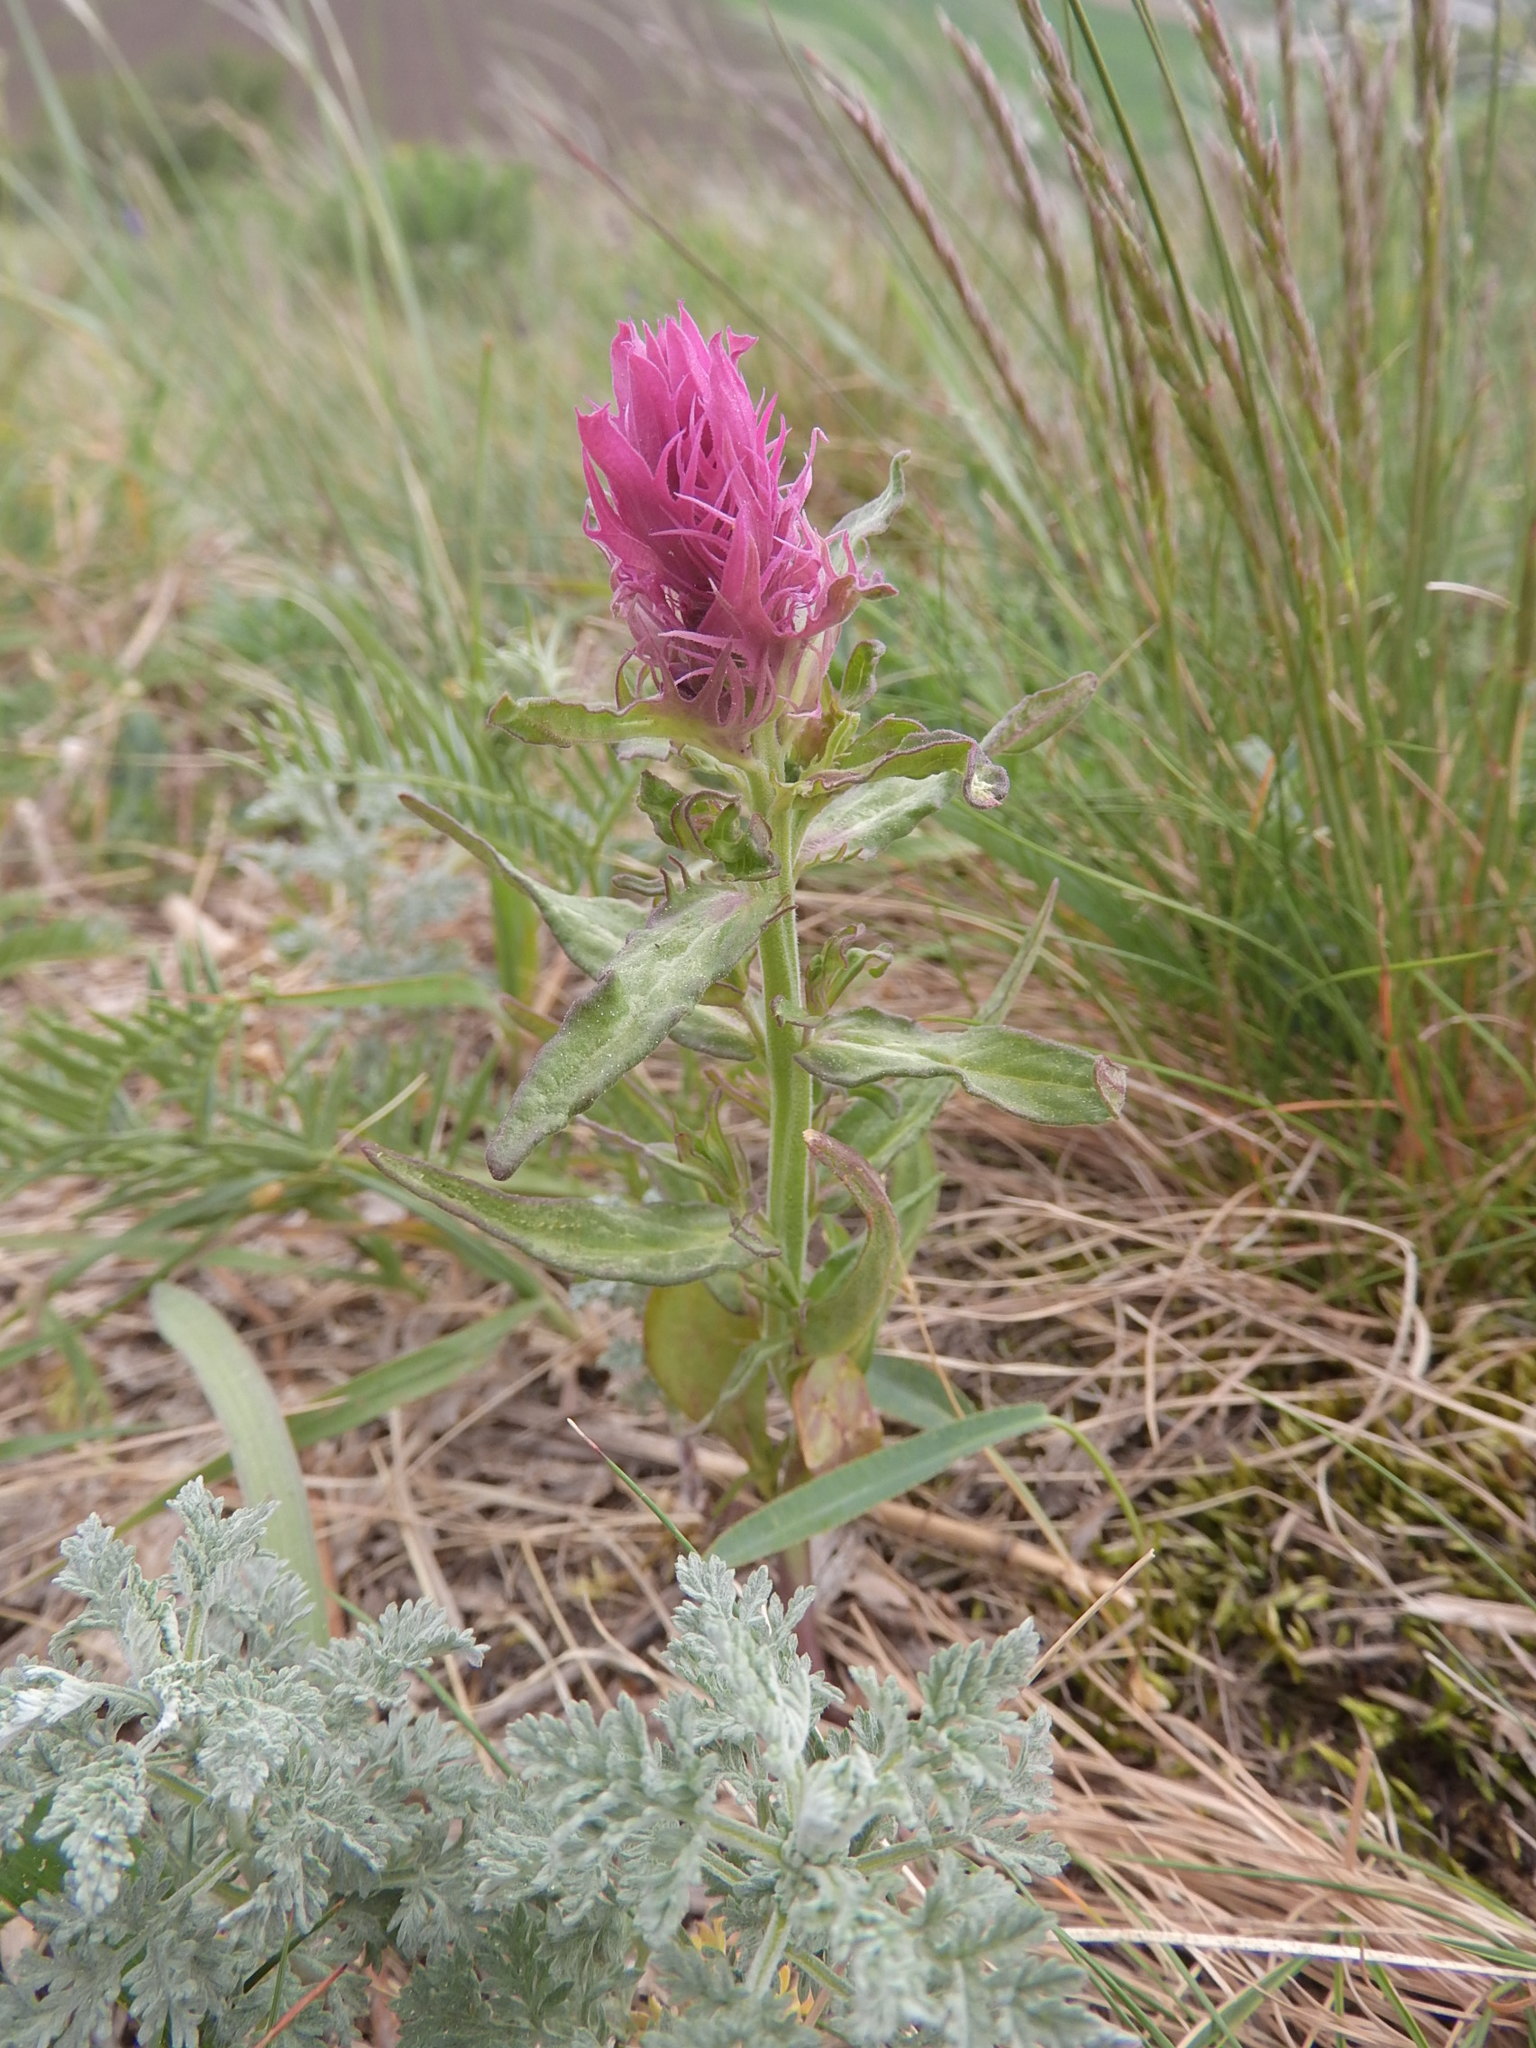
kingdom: Plantae
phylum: Tracheophyta
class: Magnoliopsida
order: Lamiales
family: Orobanchaceae
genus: Melampyrum
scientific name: Melampyrum arvense
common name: Field cow-wheat
